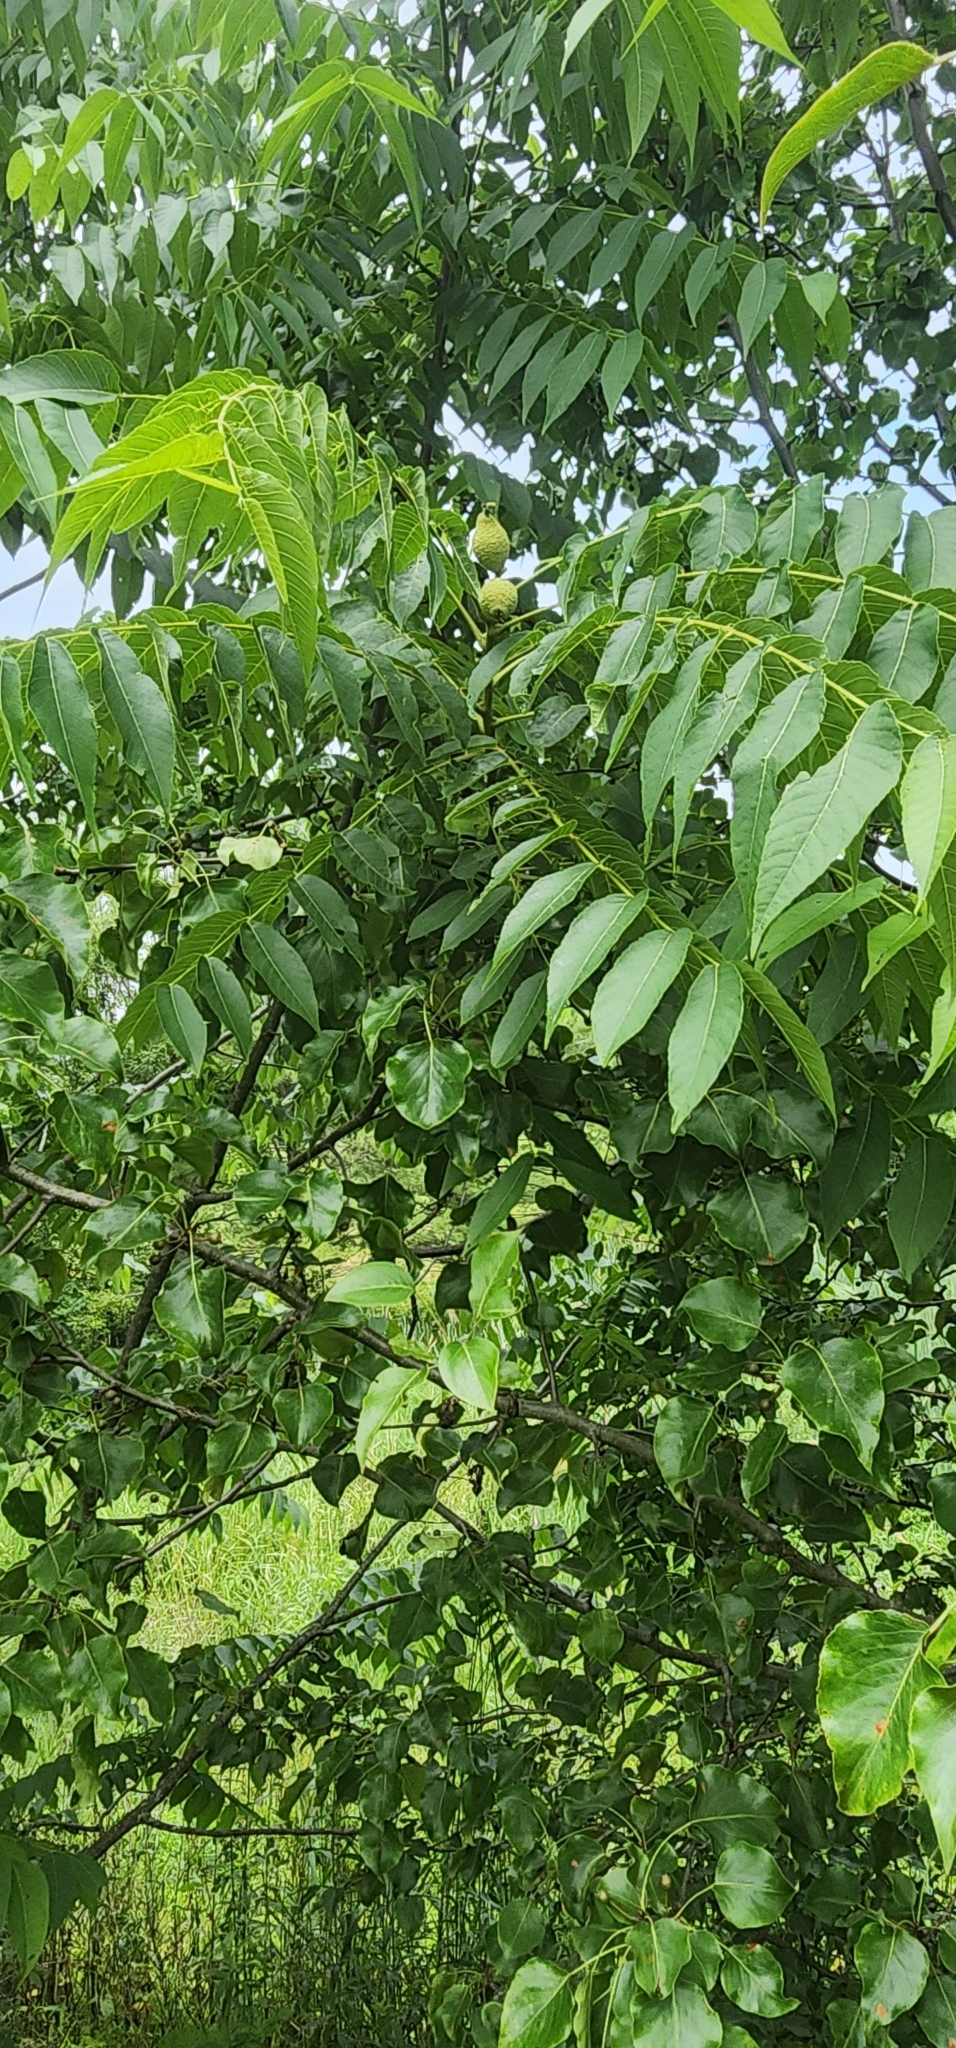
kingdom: Plantae
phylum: Tracheophyta
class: Magnoliopsida
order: Fagales
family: Juglandaceae
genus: Juglans
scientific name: Juglans nigra
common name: Black walnut
